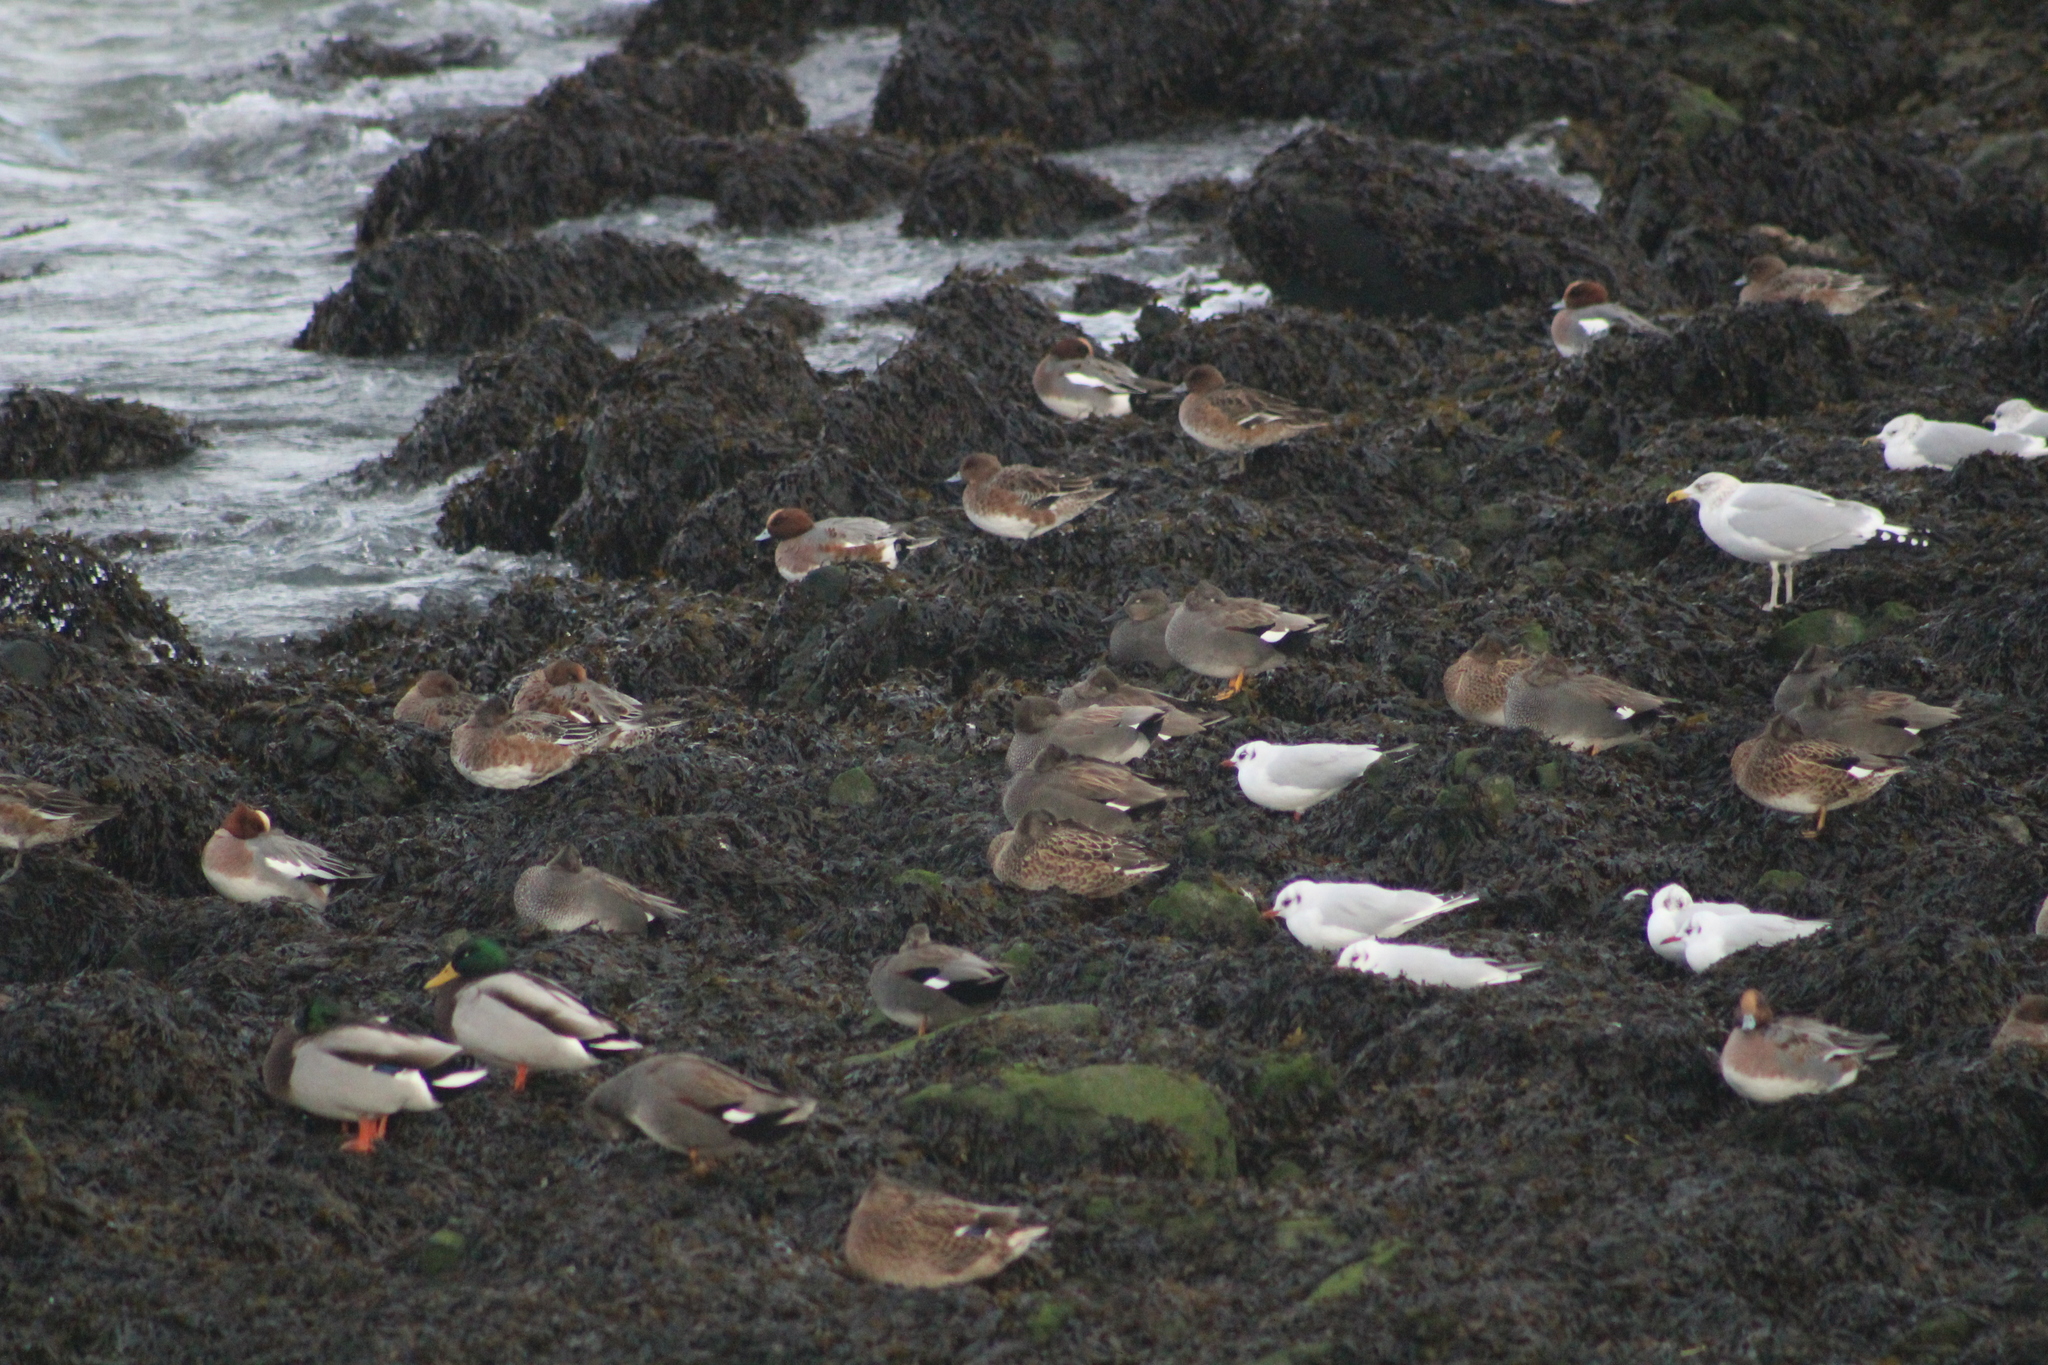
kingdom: Animalia
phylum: Chordata
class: Aves
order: Anseriformes
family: Anatidae
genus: Mareca
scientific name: Mareca strepera
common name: Gadwall
